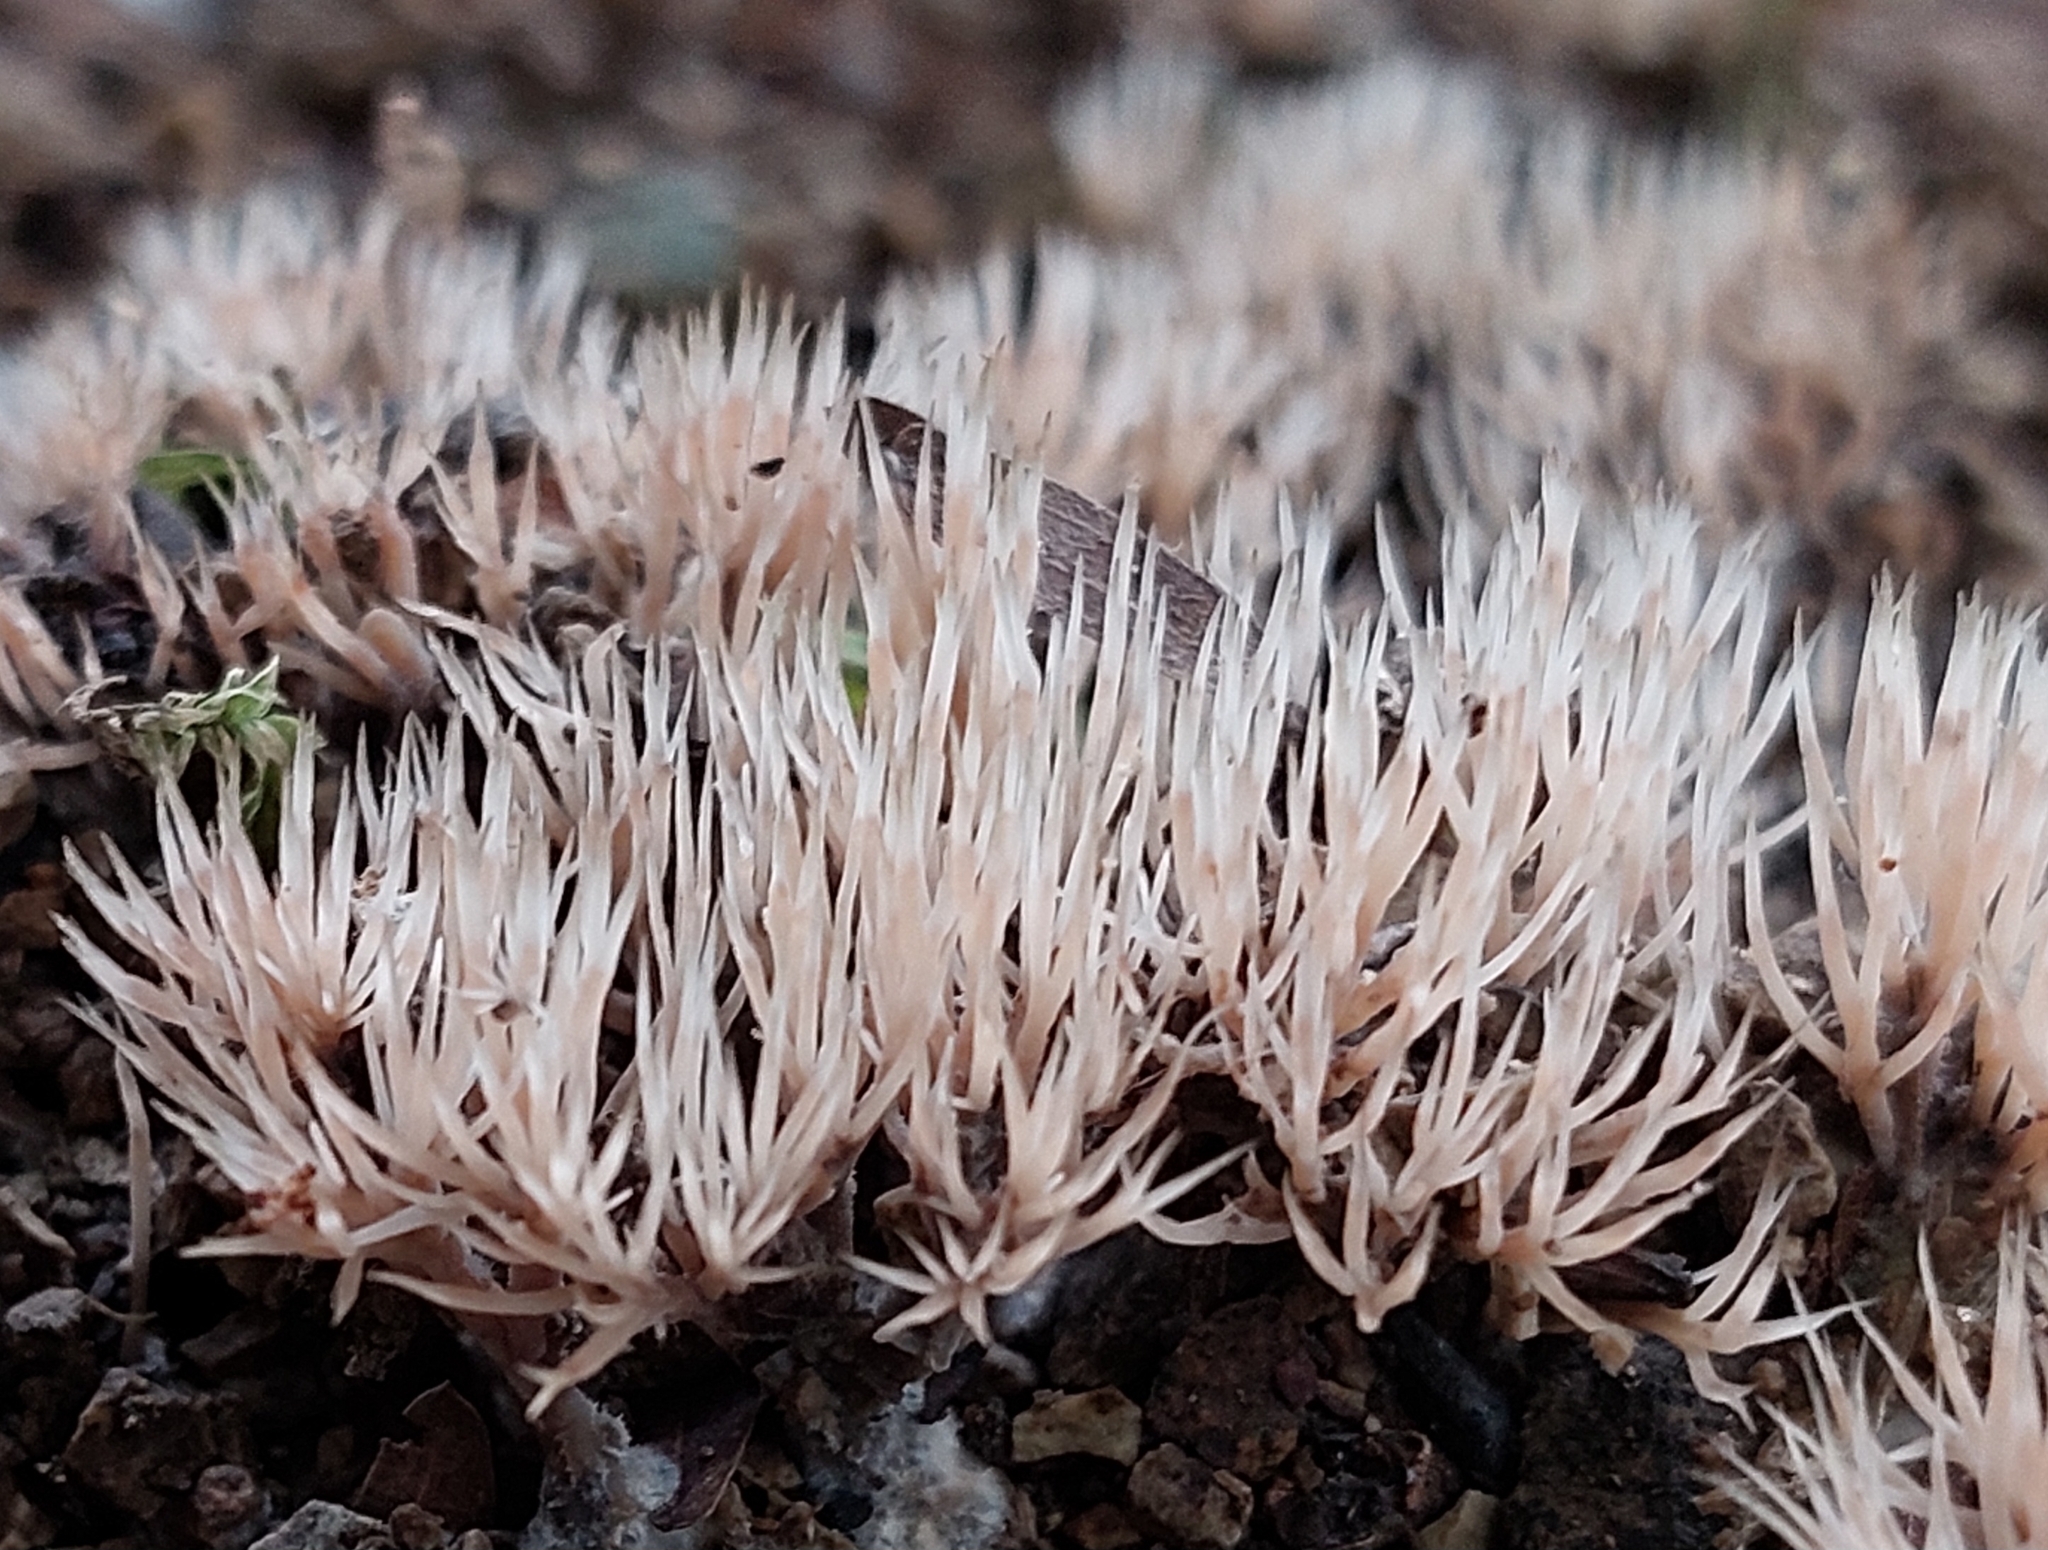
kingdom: Fungi
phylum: Basidiomycota
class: Agaricomycetes
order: Agaricales
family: Pterulaceae
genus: Pterulicium
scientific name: Pterulicium subsimplex
